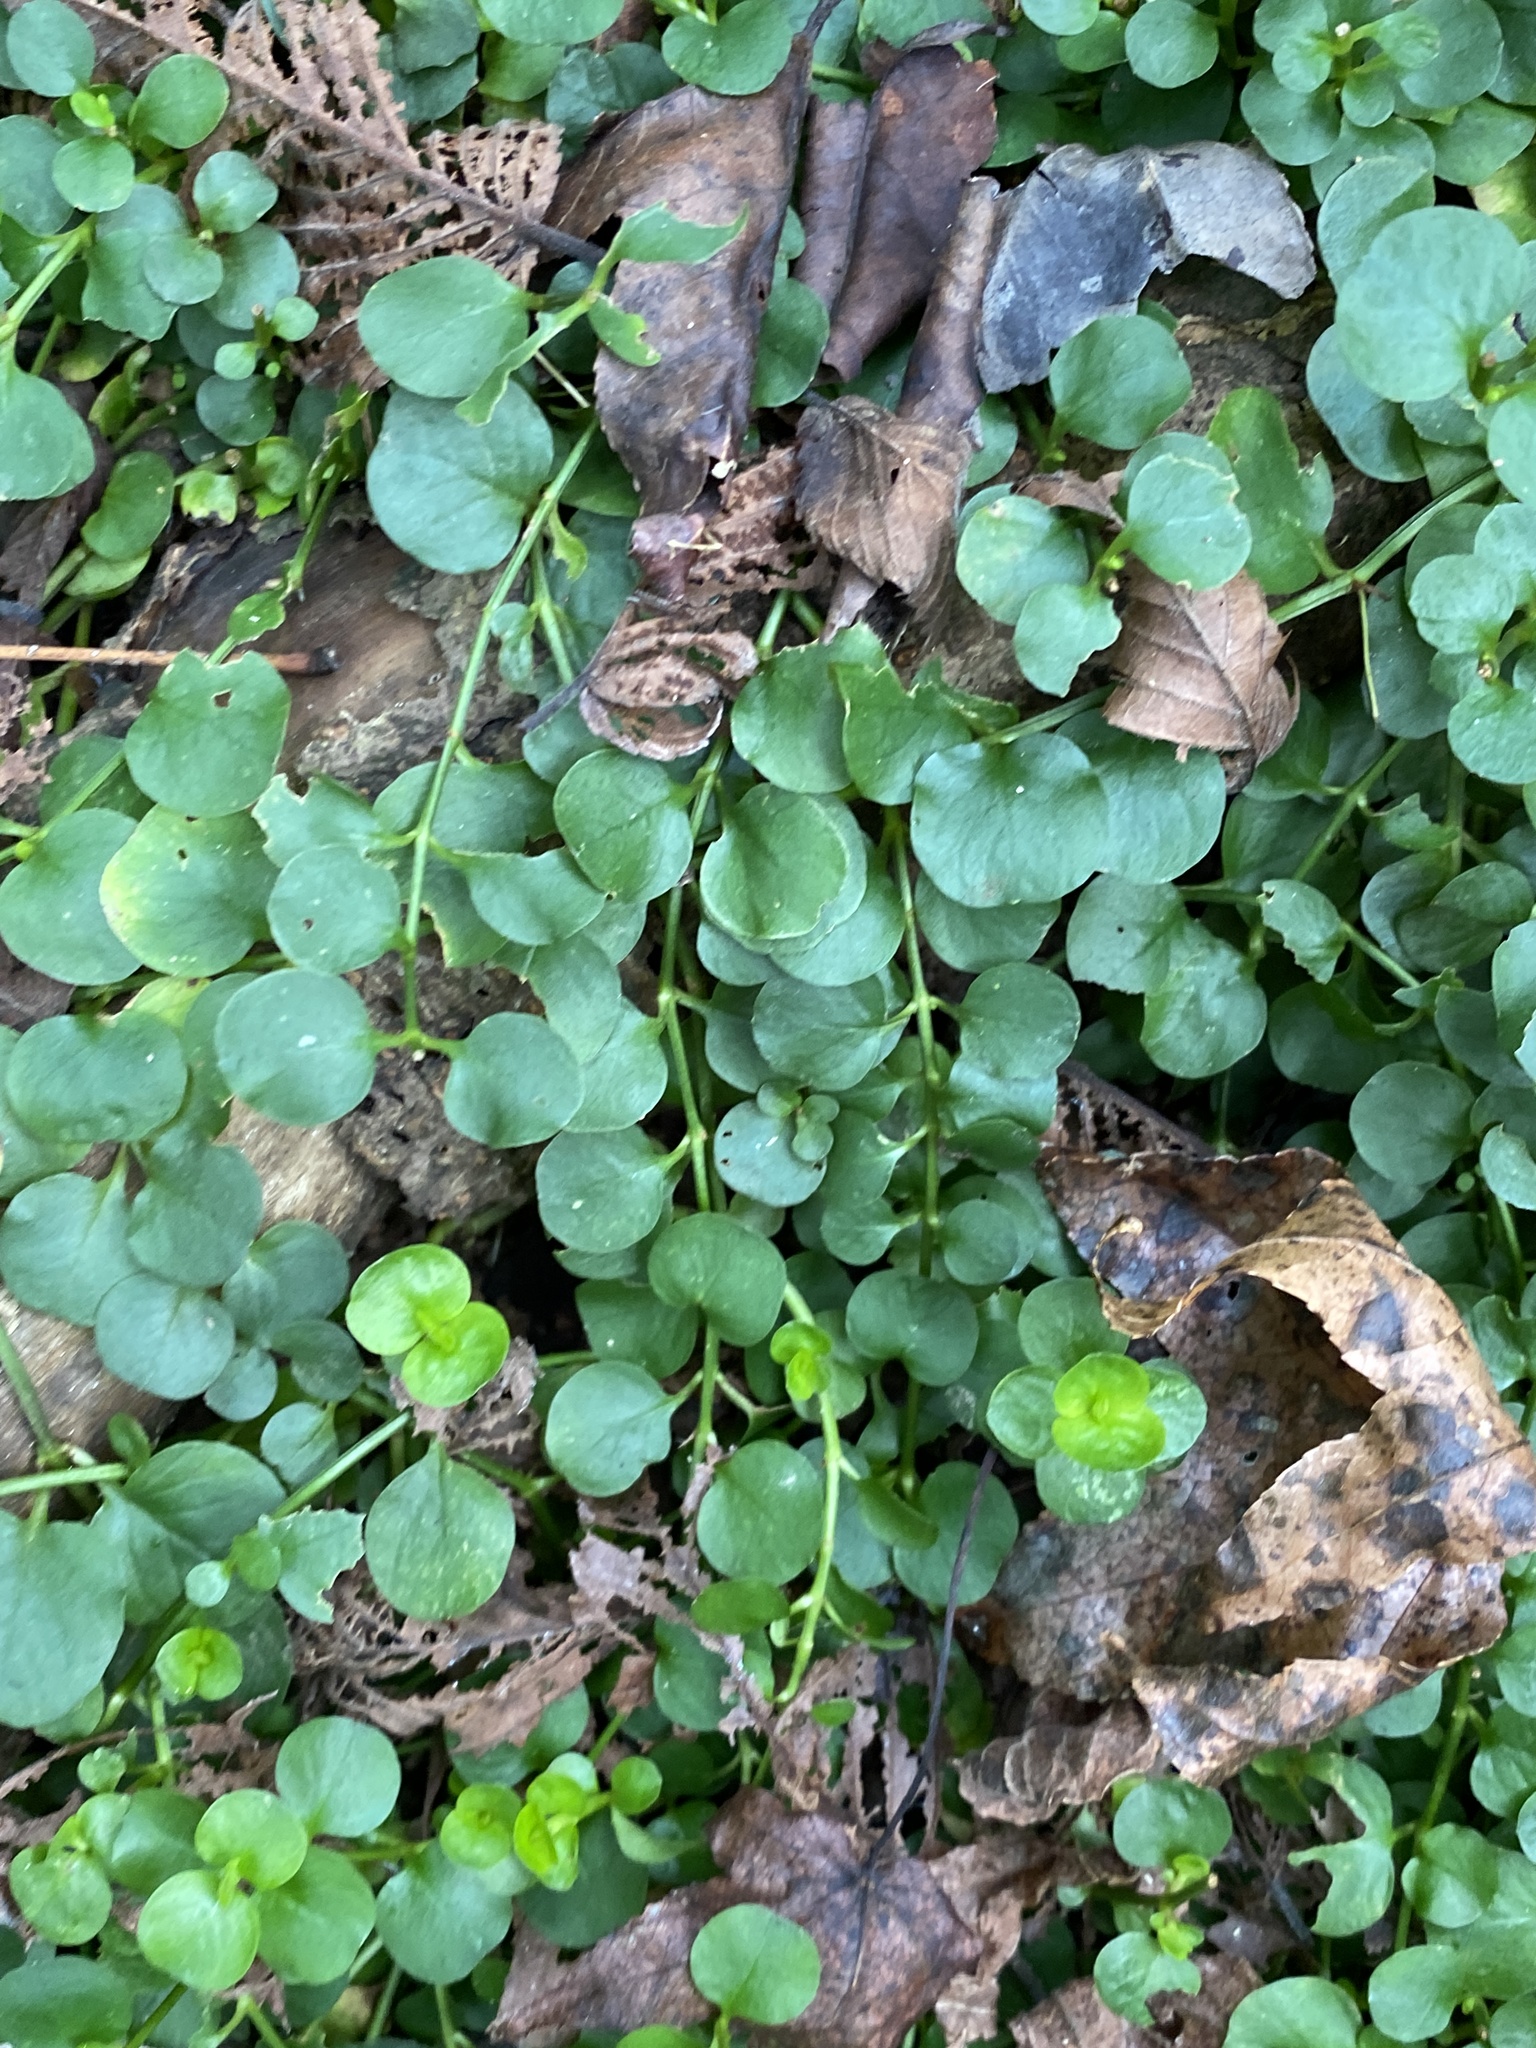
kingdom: Plantae
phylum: Tracheophyta
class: Magnoliopsida
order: Gentianales
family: Rubiaceae
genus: Mitchella
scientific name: Mitchella repens
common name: Partridge-berry
